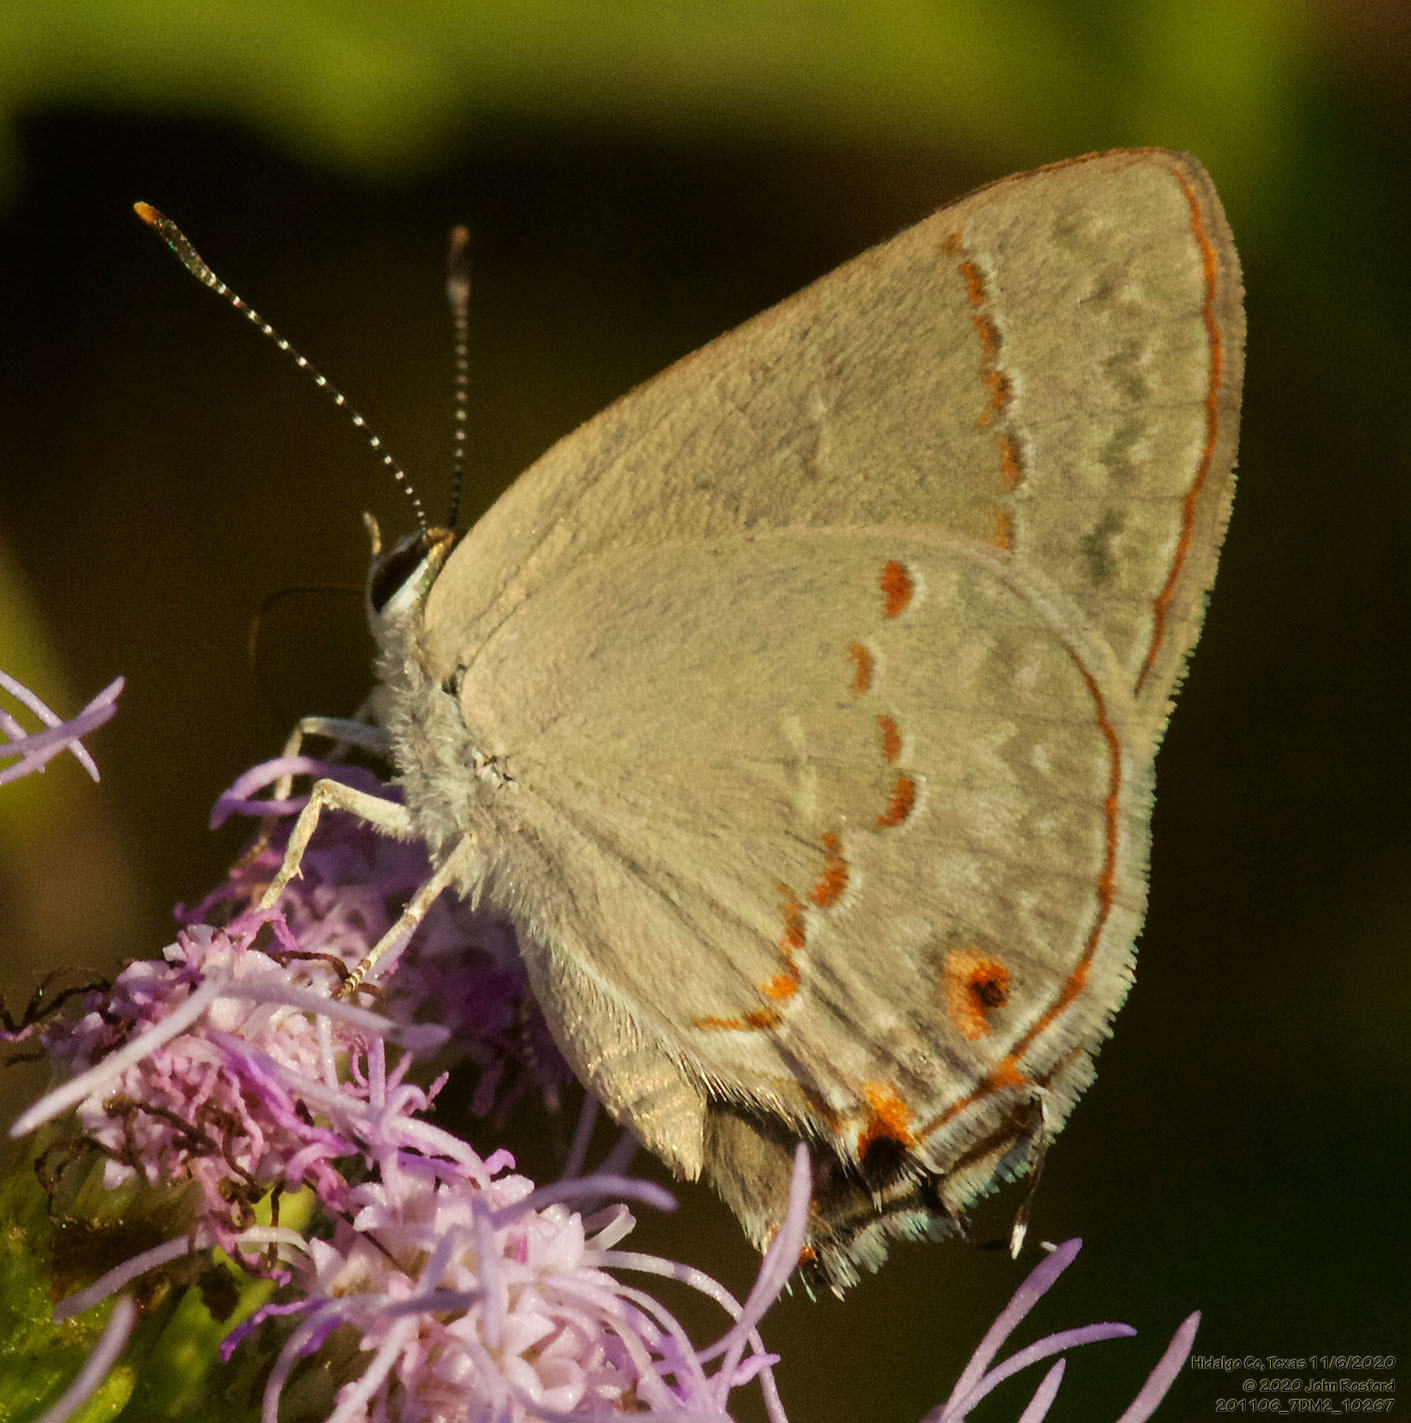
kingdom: Animalia
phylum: Arthropoda
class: Insecta
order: Lepidoptera
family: Lycaenidae
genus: Thecla
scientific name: Thecla rufofusca
